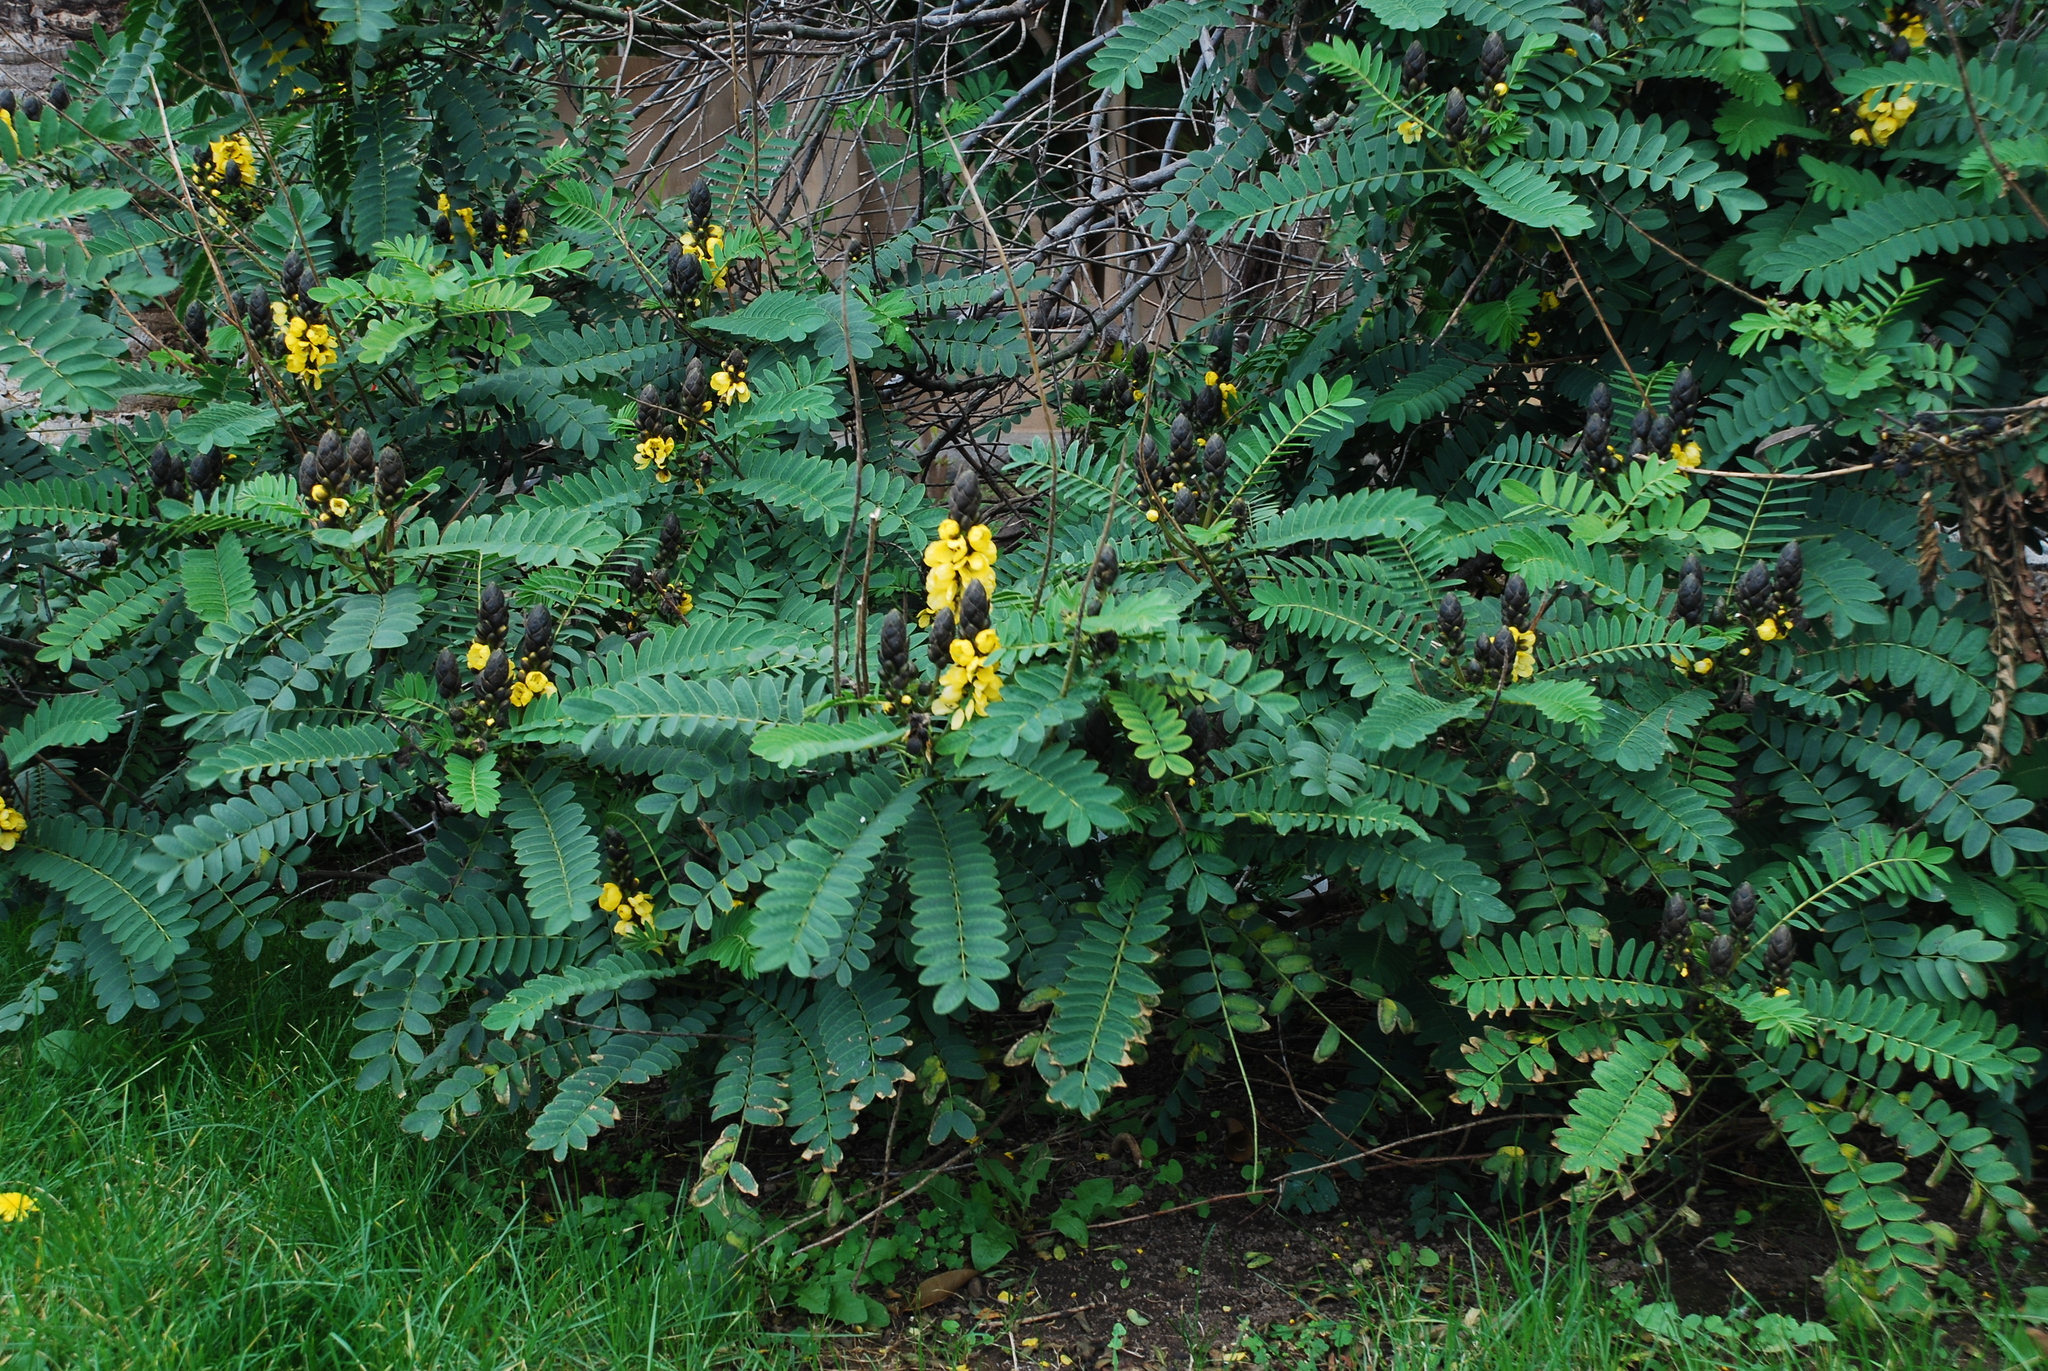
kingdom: Plantae
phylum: Tracheophyta
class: Magnoliopsida
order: Fabales
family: Fabaceae
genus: Senna
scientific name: Senna didymobotrya
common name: African senna
